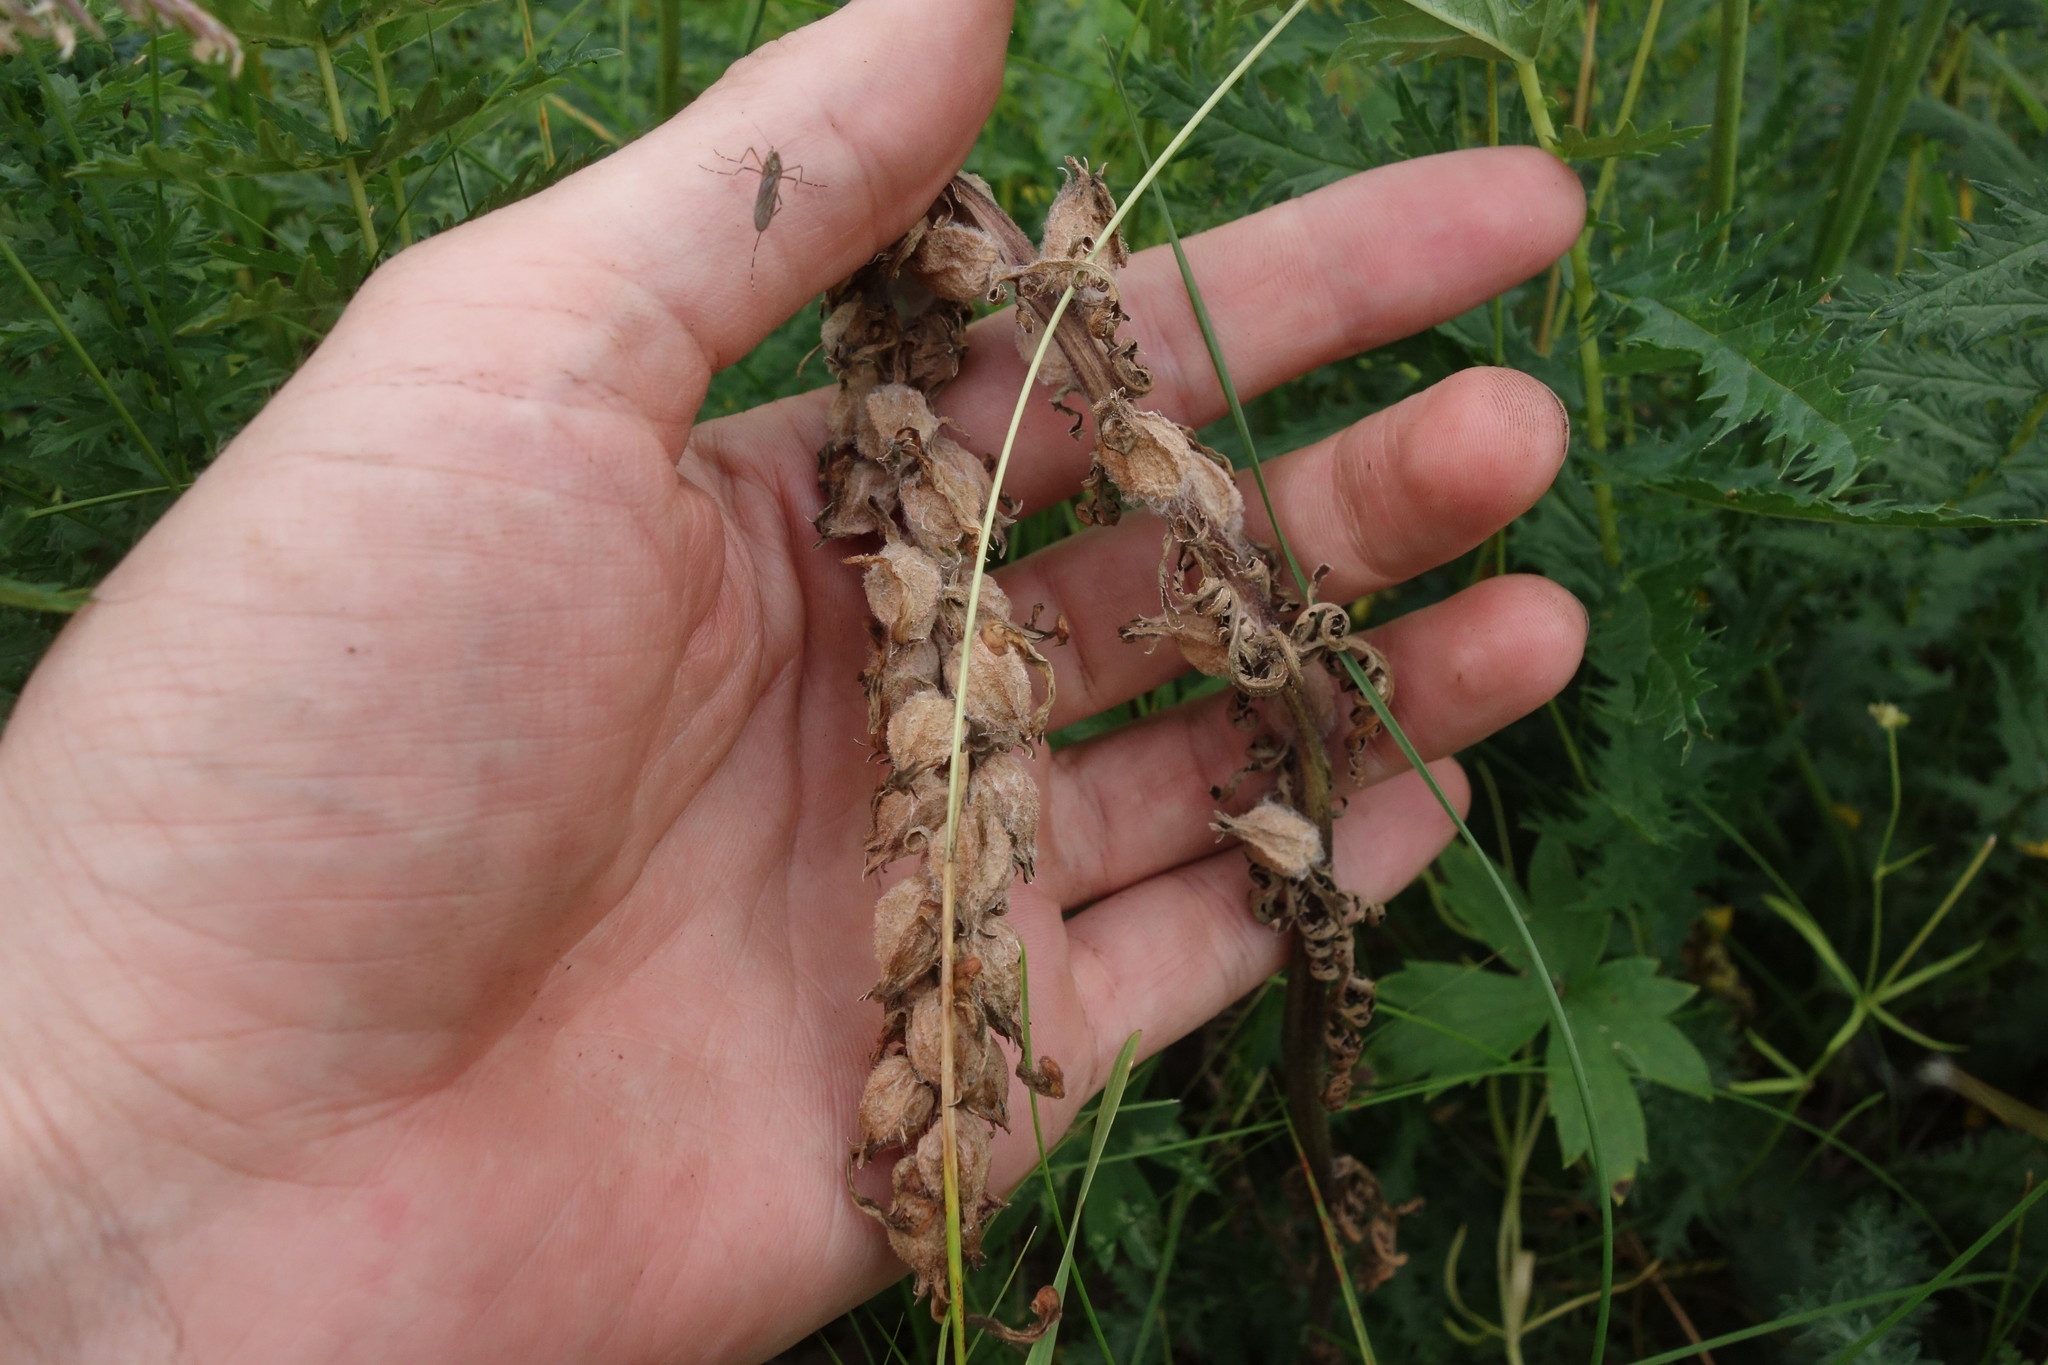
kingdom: Plantae
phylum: Tracheophyta
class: Magnoliopsida
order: Lamiales
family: Orobanchaceae
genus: Pedicularis
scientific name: Pedicularis dasystachys
